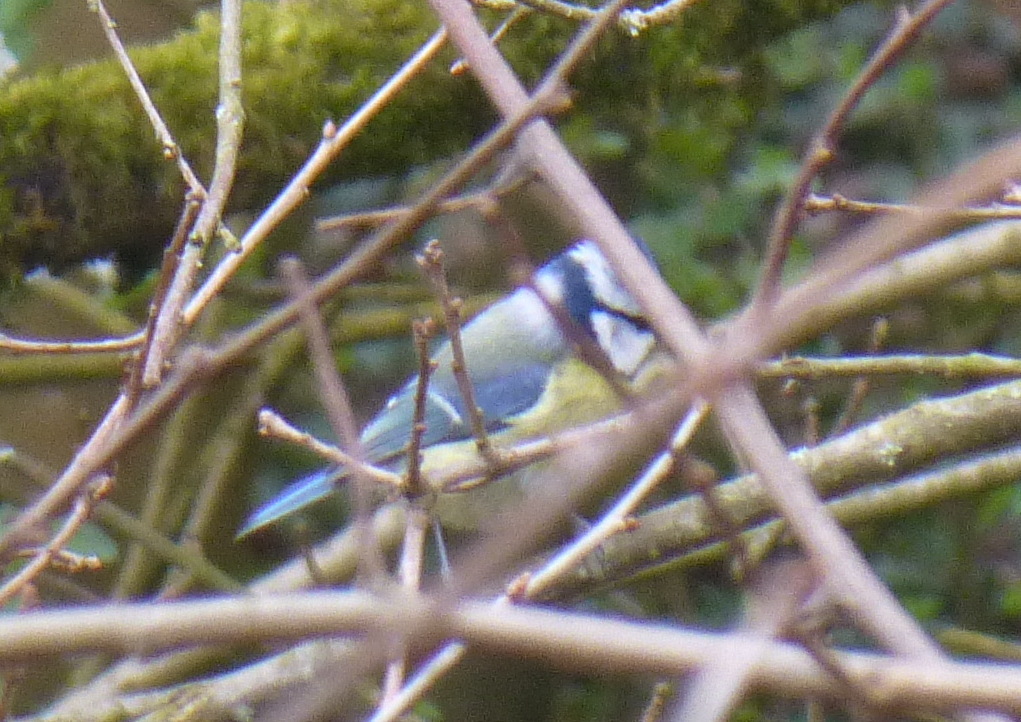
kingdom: Animalia
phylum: Chordata
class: Aves
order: Passeriformes
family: Paridae
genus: Cyanistes
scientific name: Cyanistes caeruleus
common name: Eurasian blue tit
